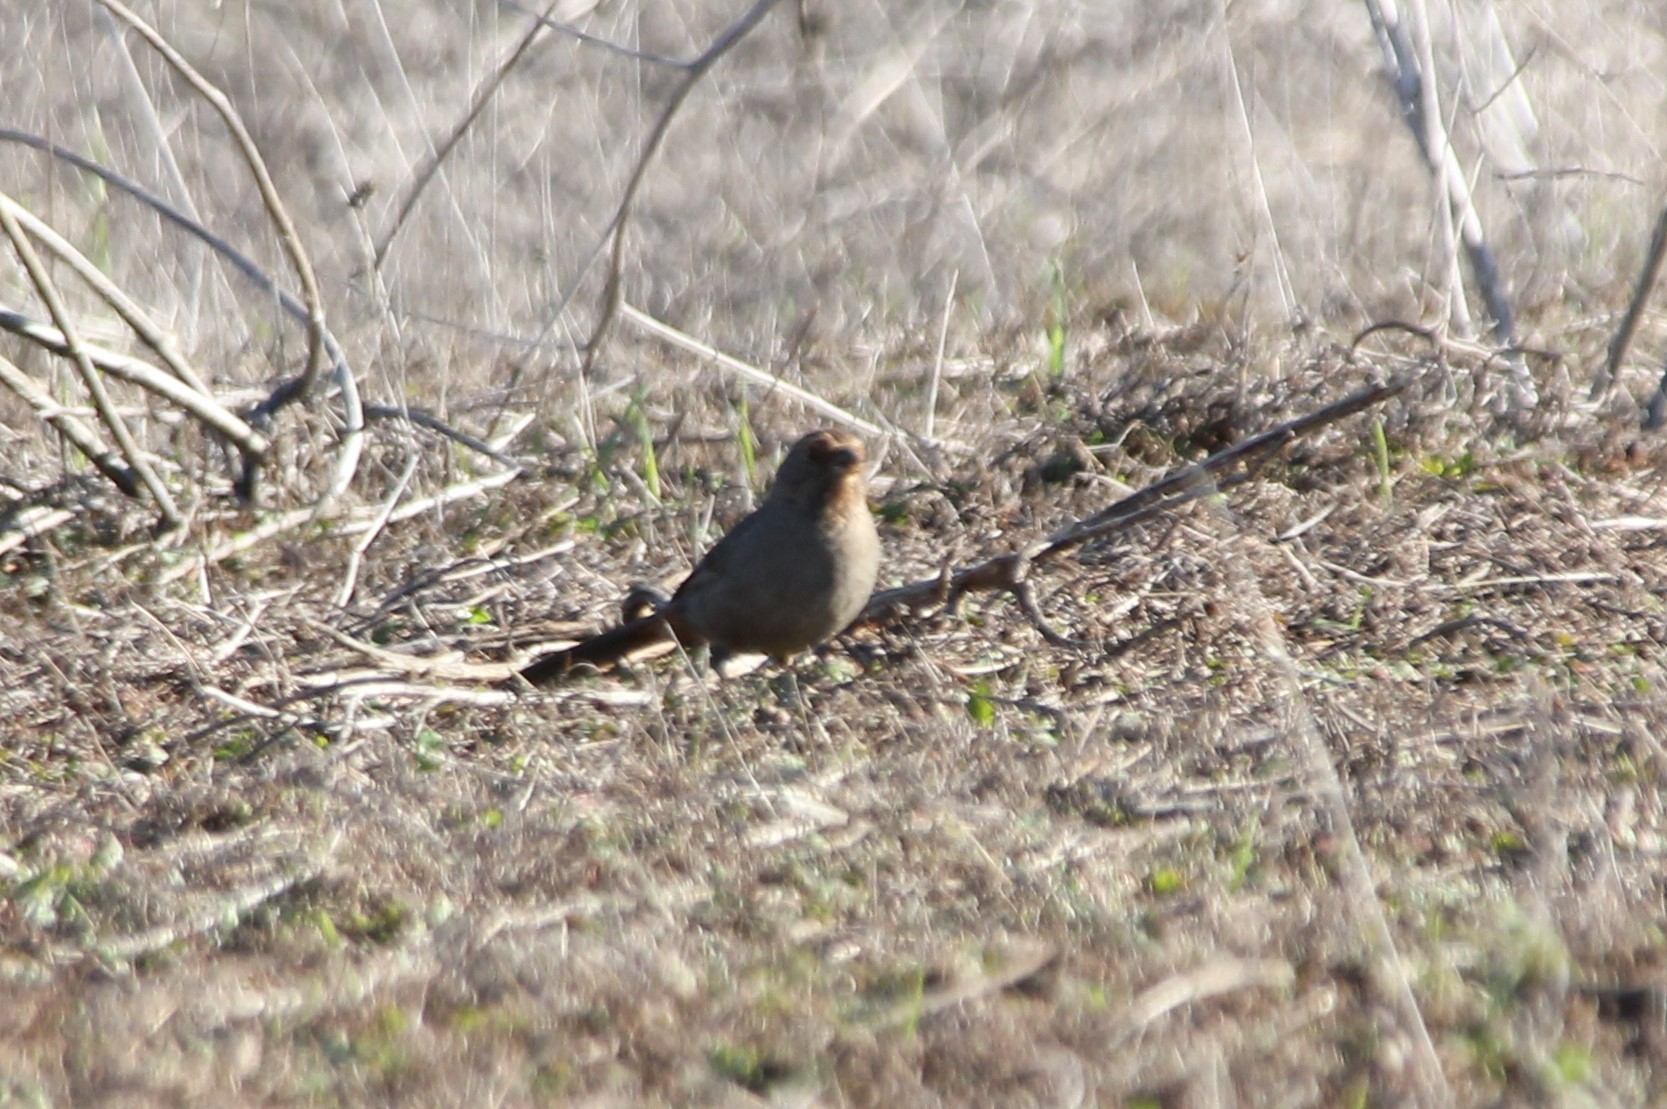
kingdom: Animalia
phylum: Chordata
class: Aves
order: Passeriformes
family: Passerellidae
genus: Melozone
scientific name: Melozone crissalis
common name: California towhee
